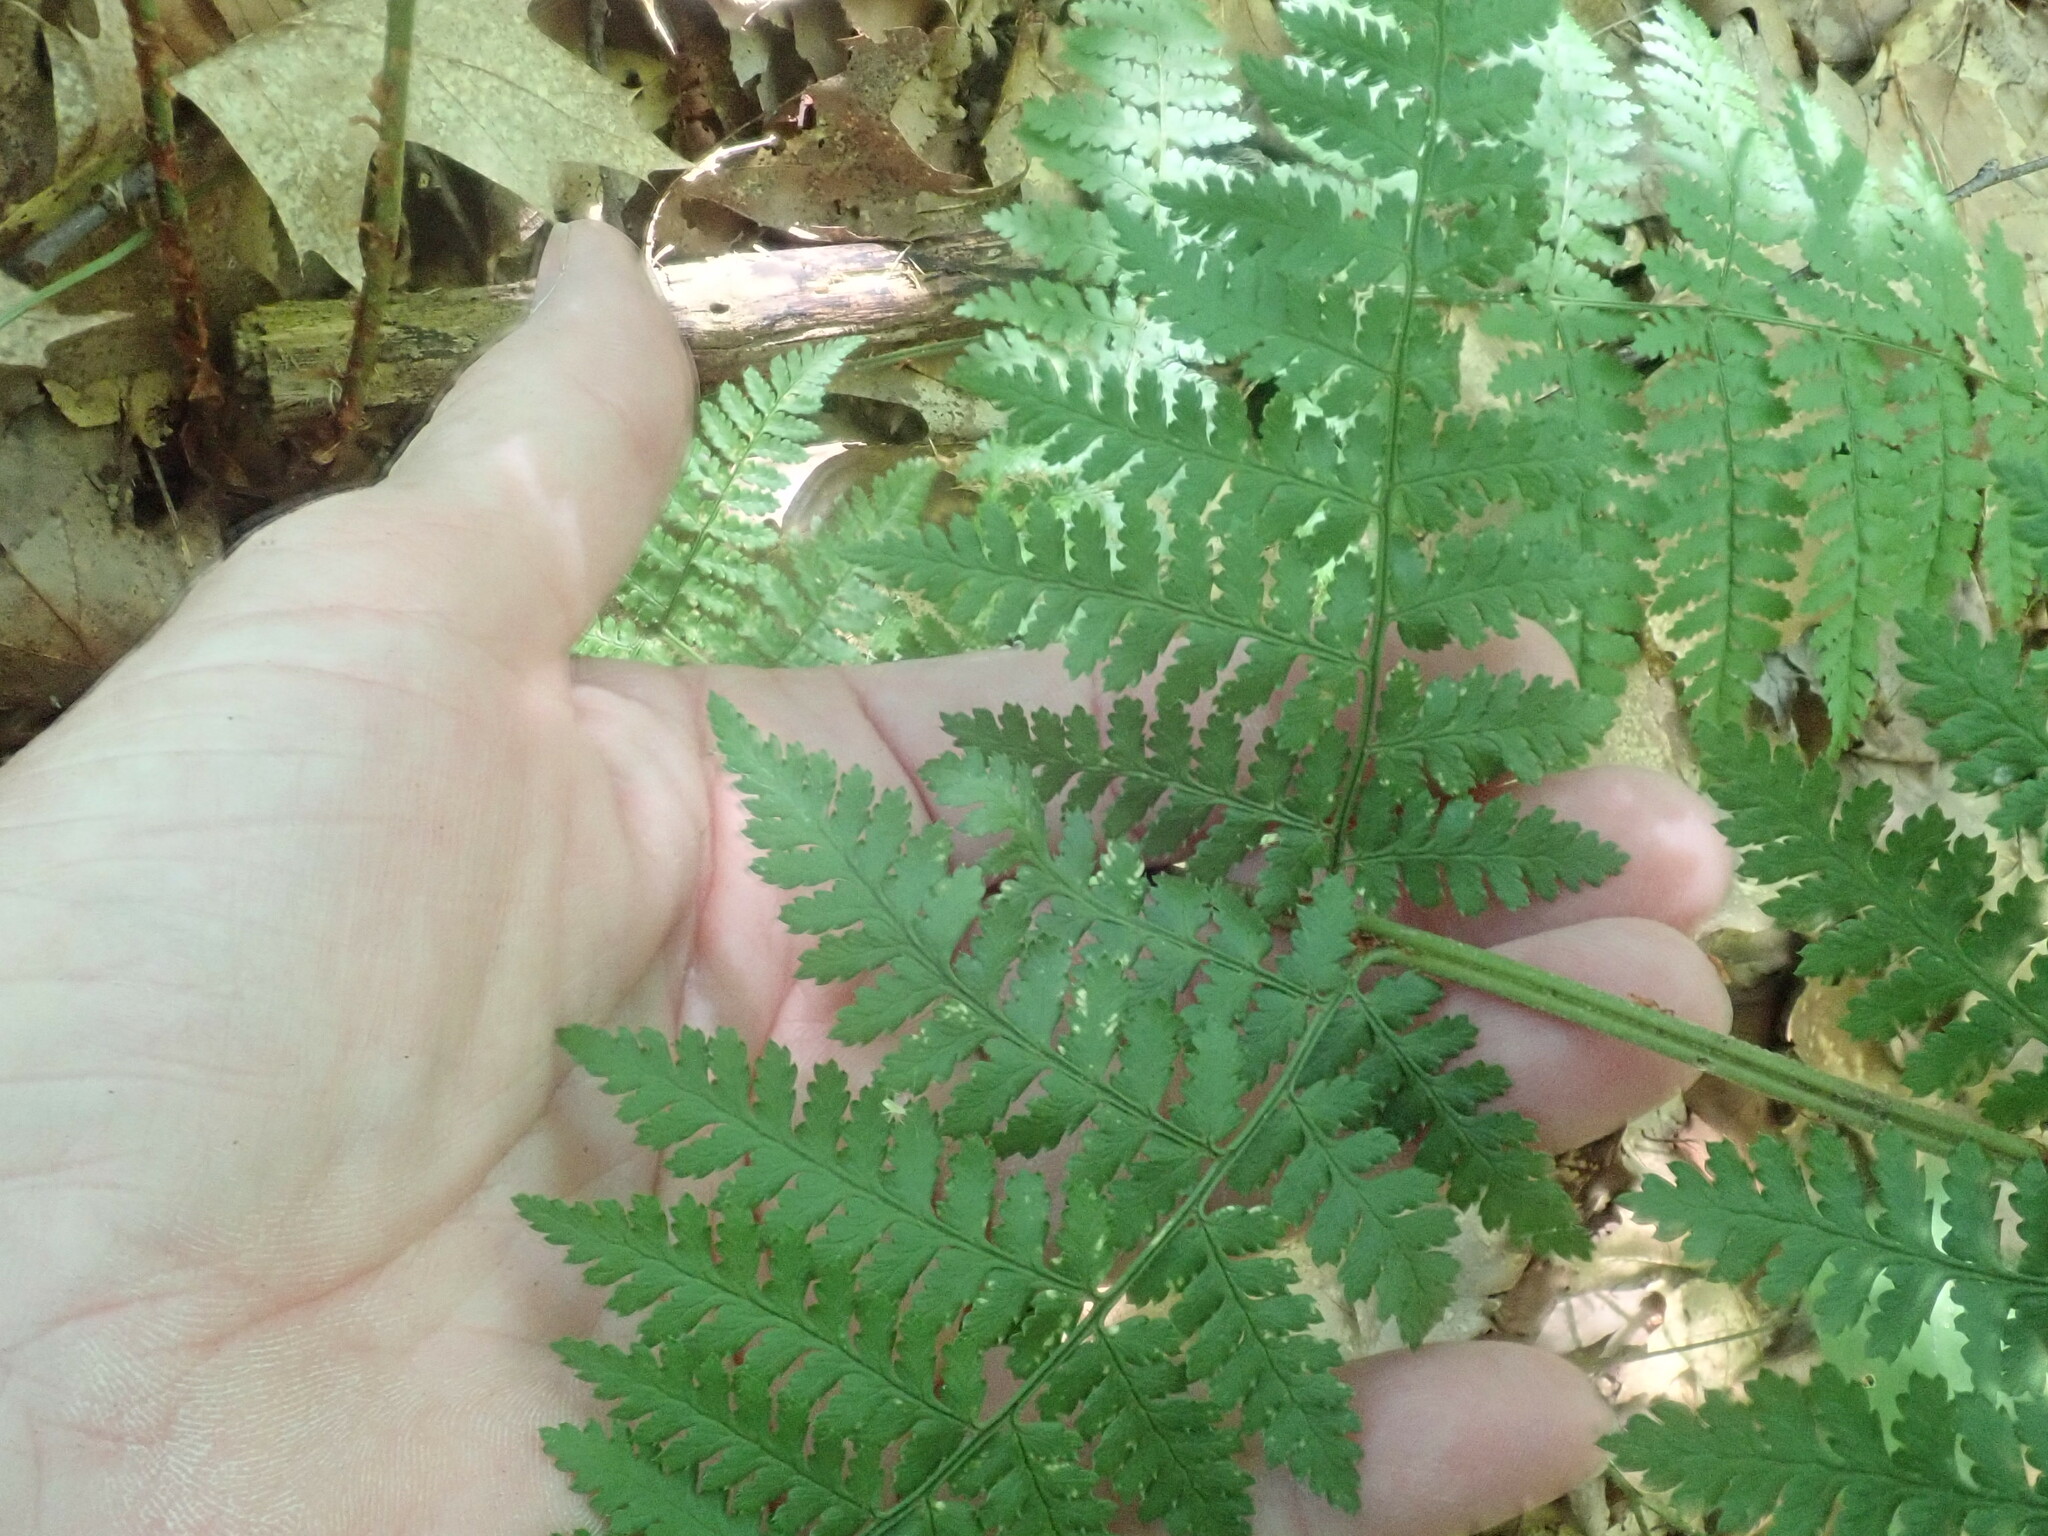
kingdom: Plantae
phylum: Tracheophyta
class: Polypodiopsida
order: Polypodiales
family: Dryopteridaceae
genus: Dryopteris
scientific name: Dryopteris intermedia
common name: Evergreen wood fern
